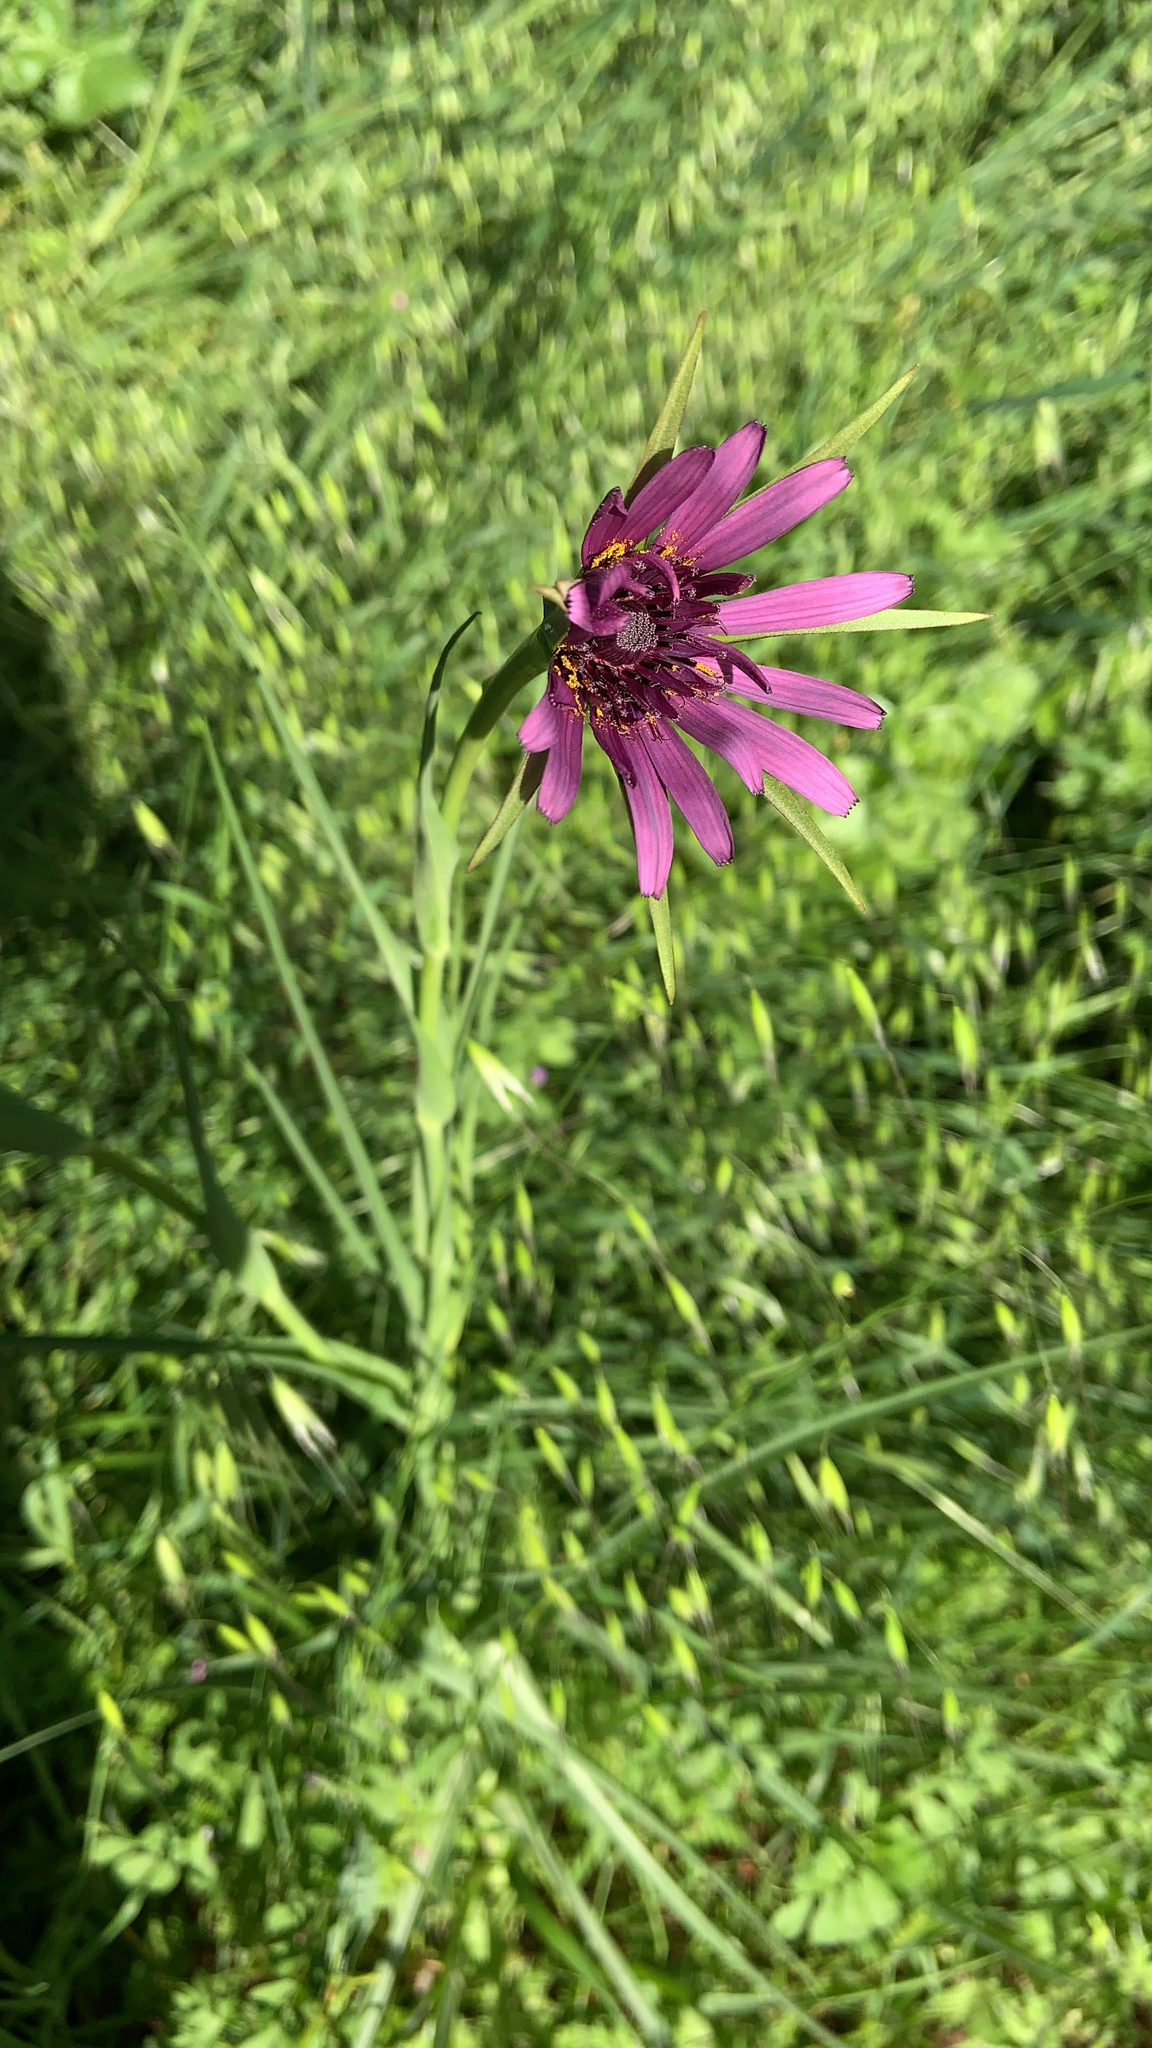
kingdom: Plantae
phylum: Tracheophyta
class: Magnoliopsida
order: Asterales
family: Asteraceae
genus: Tragopogon
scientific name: Tragopogon porrifolius
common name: Salsify
